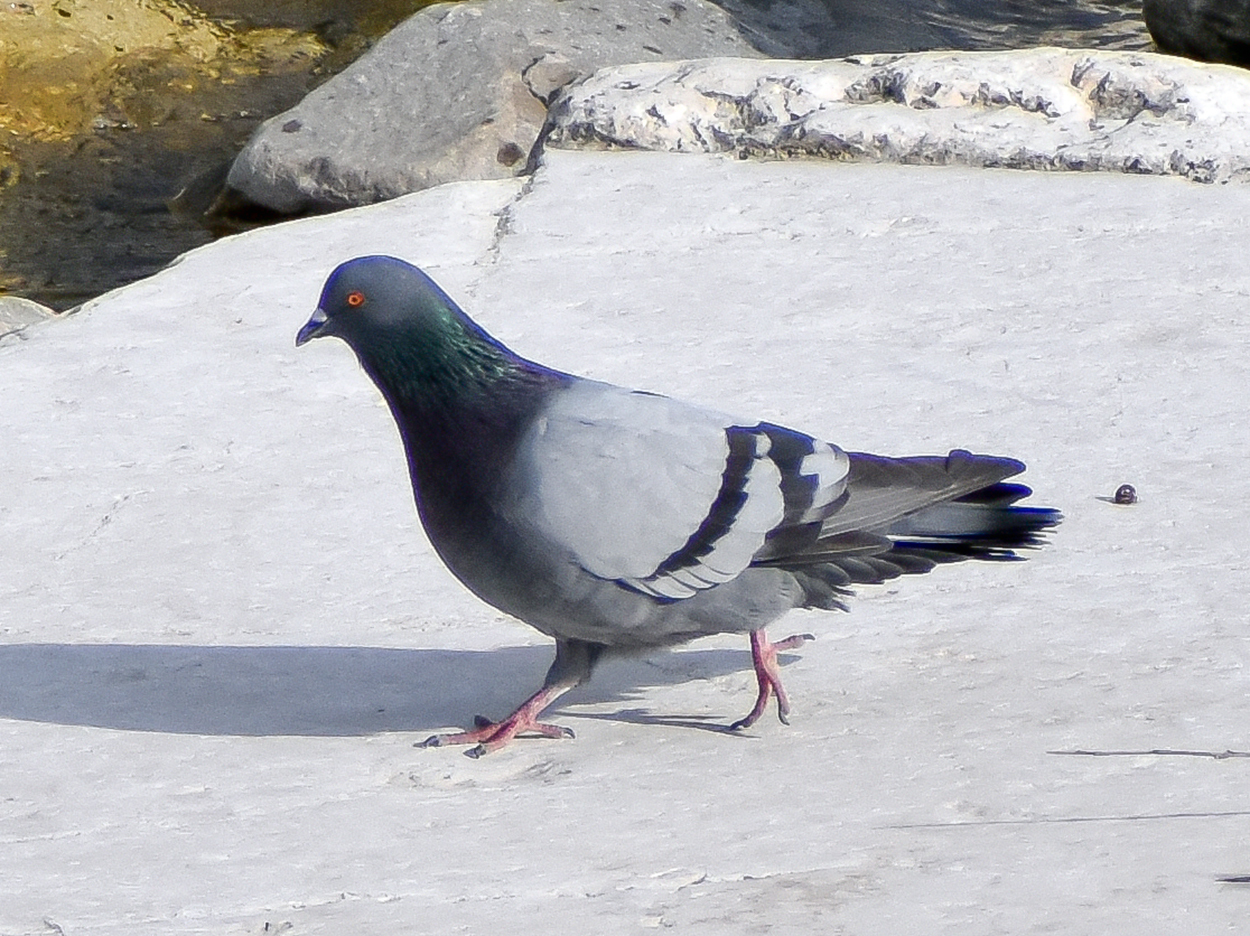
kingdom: Animalia
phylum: Chordata
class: Aves
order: Columbiformes
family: Columbidae
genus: Columba
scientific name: Columba livia
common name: Rock pigeon
